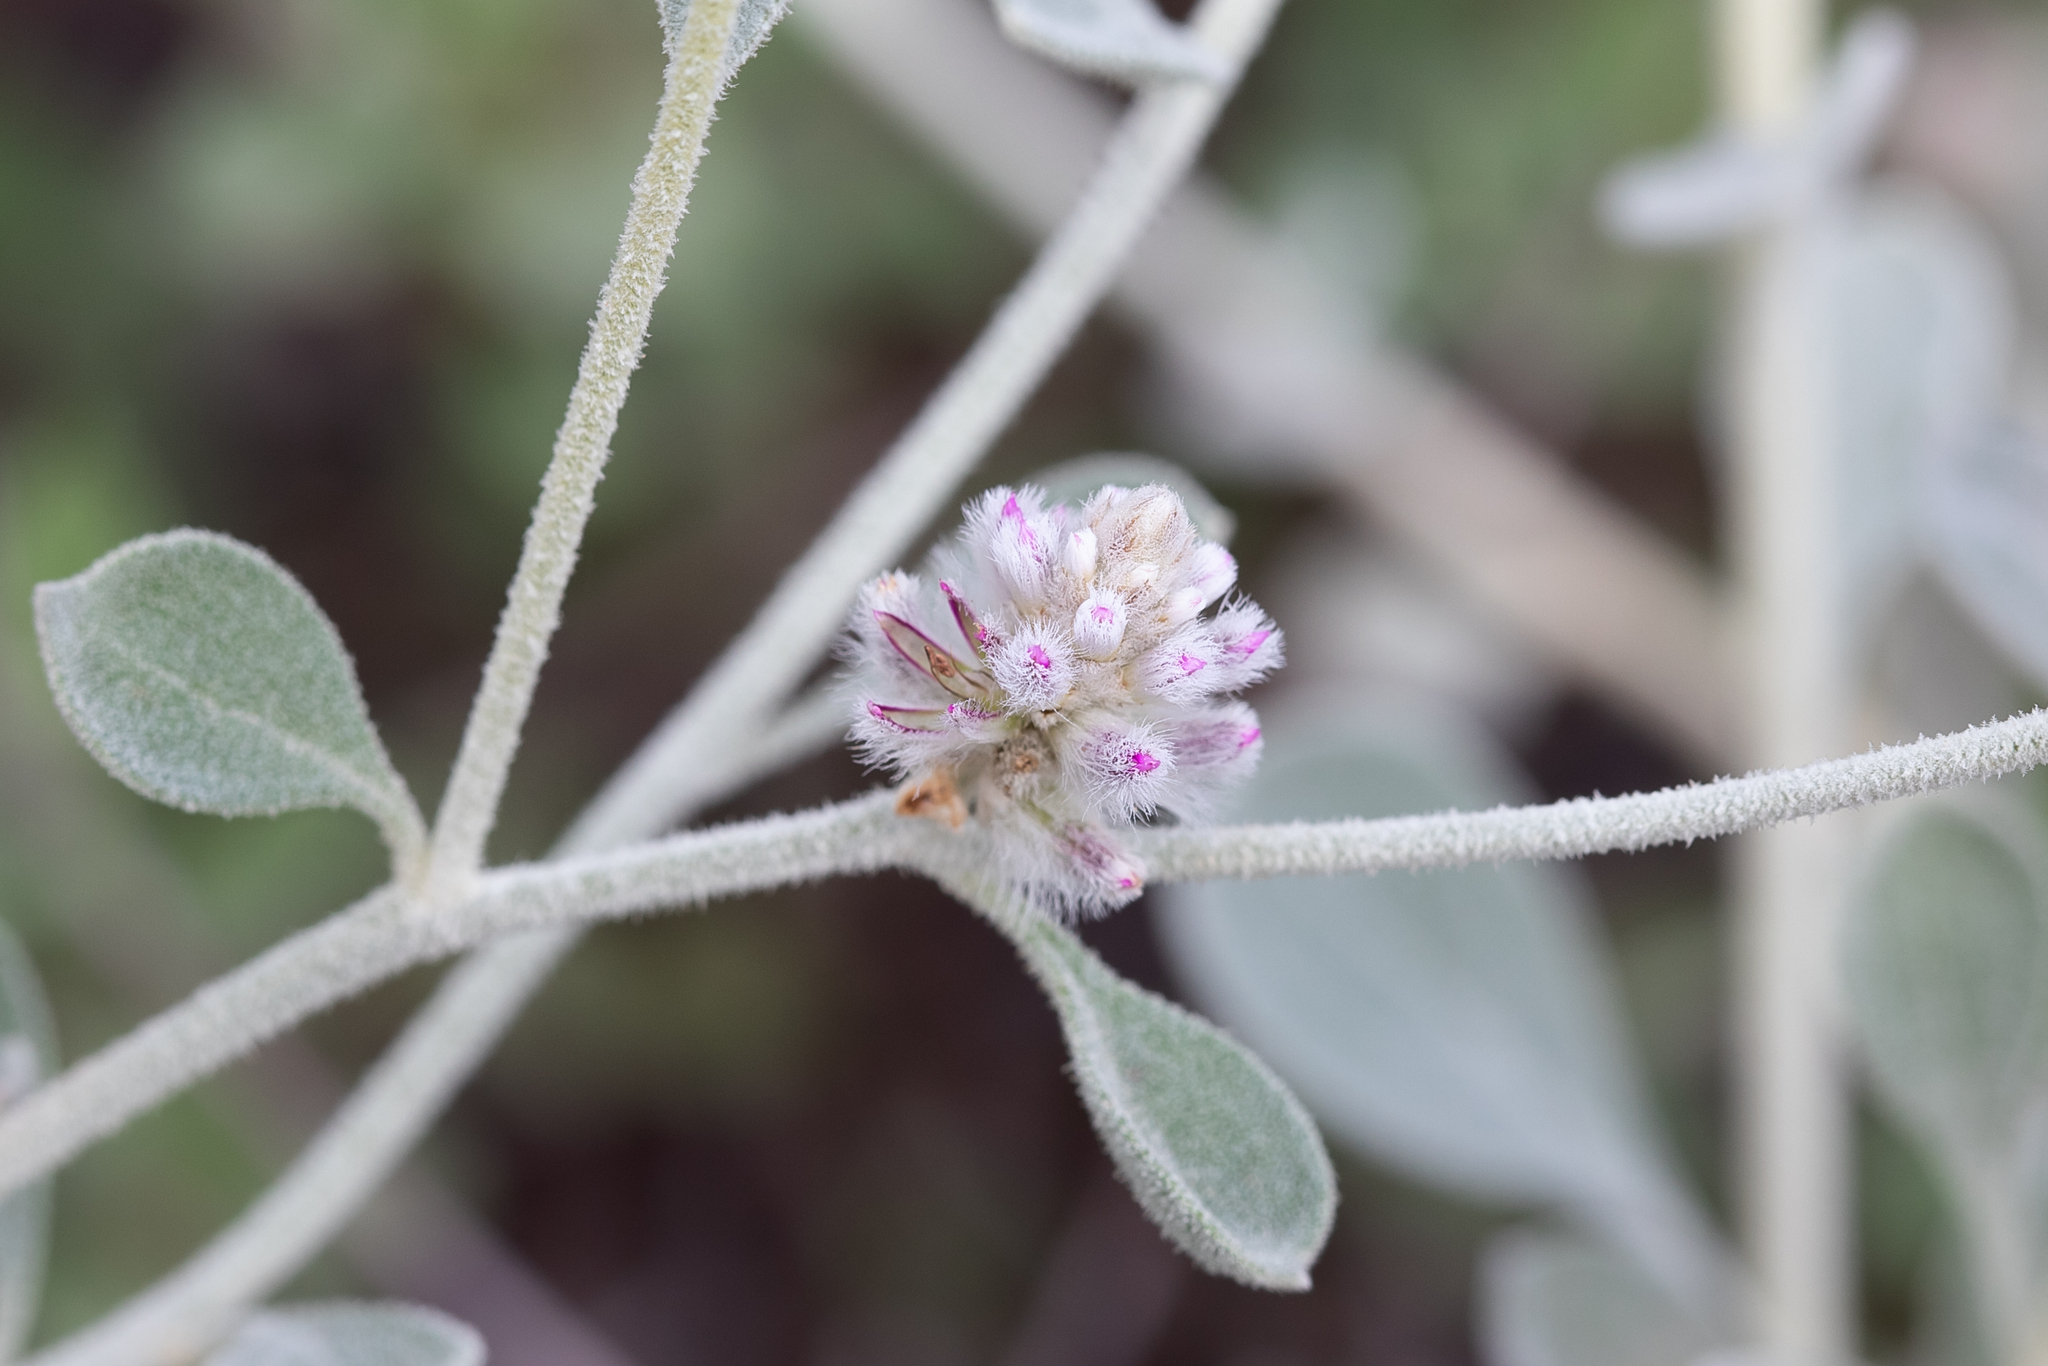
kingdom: Plantae
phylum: Tracheophyta
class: Magnoliopsida
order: Caryophyllales
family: Amaranthaceae
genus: Ptilotus
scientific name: Ptilotus obovatus
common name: Cottonbush
